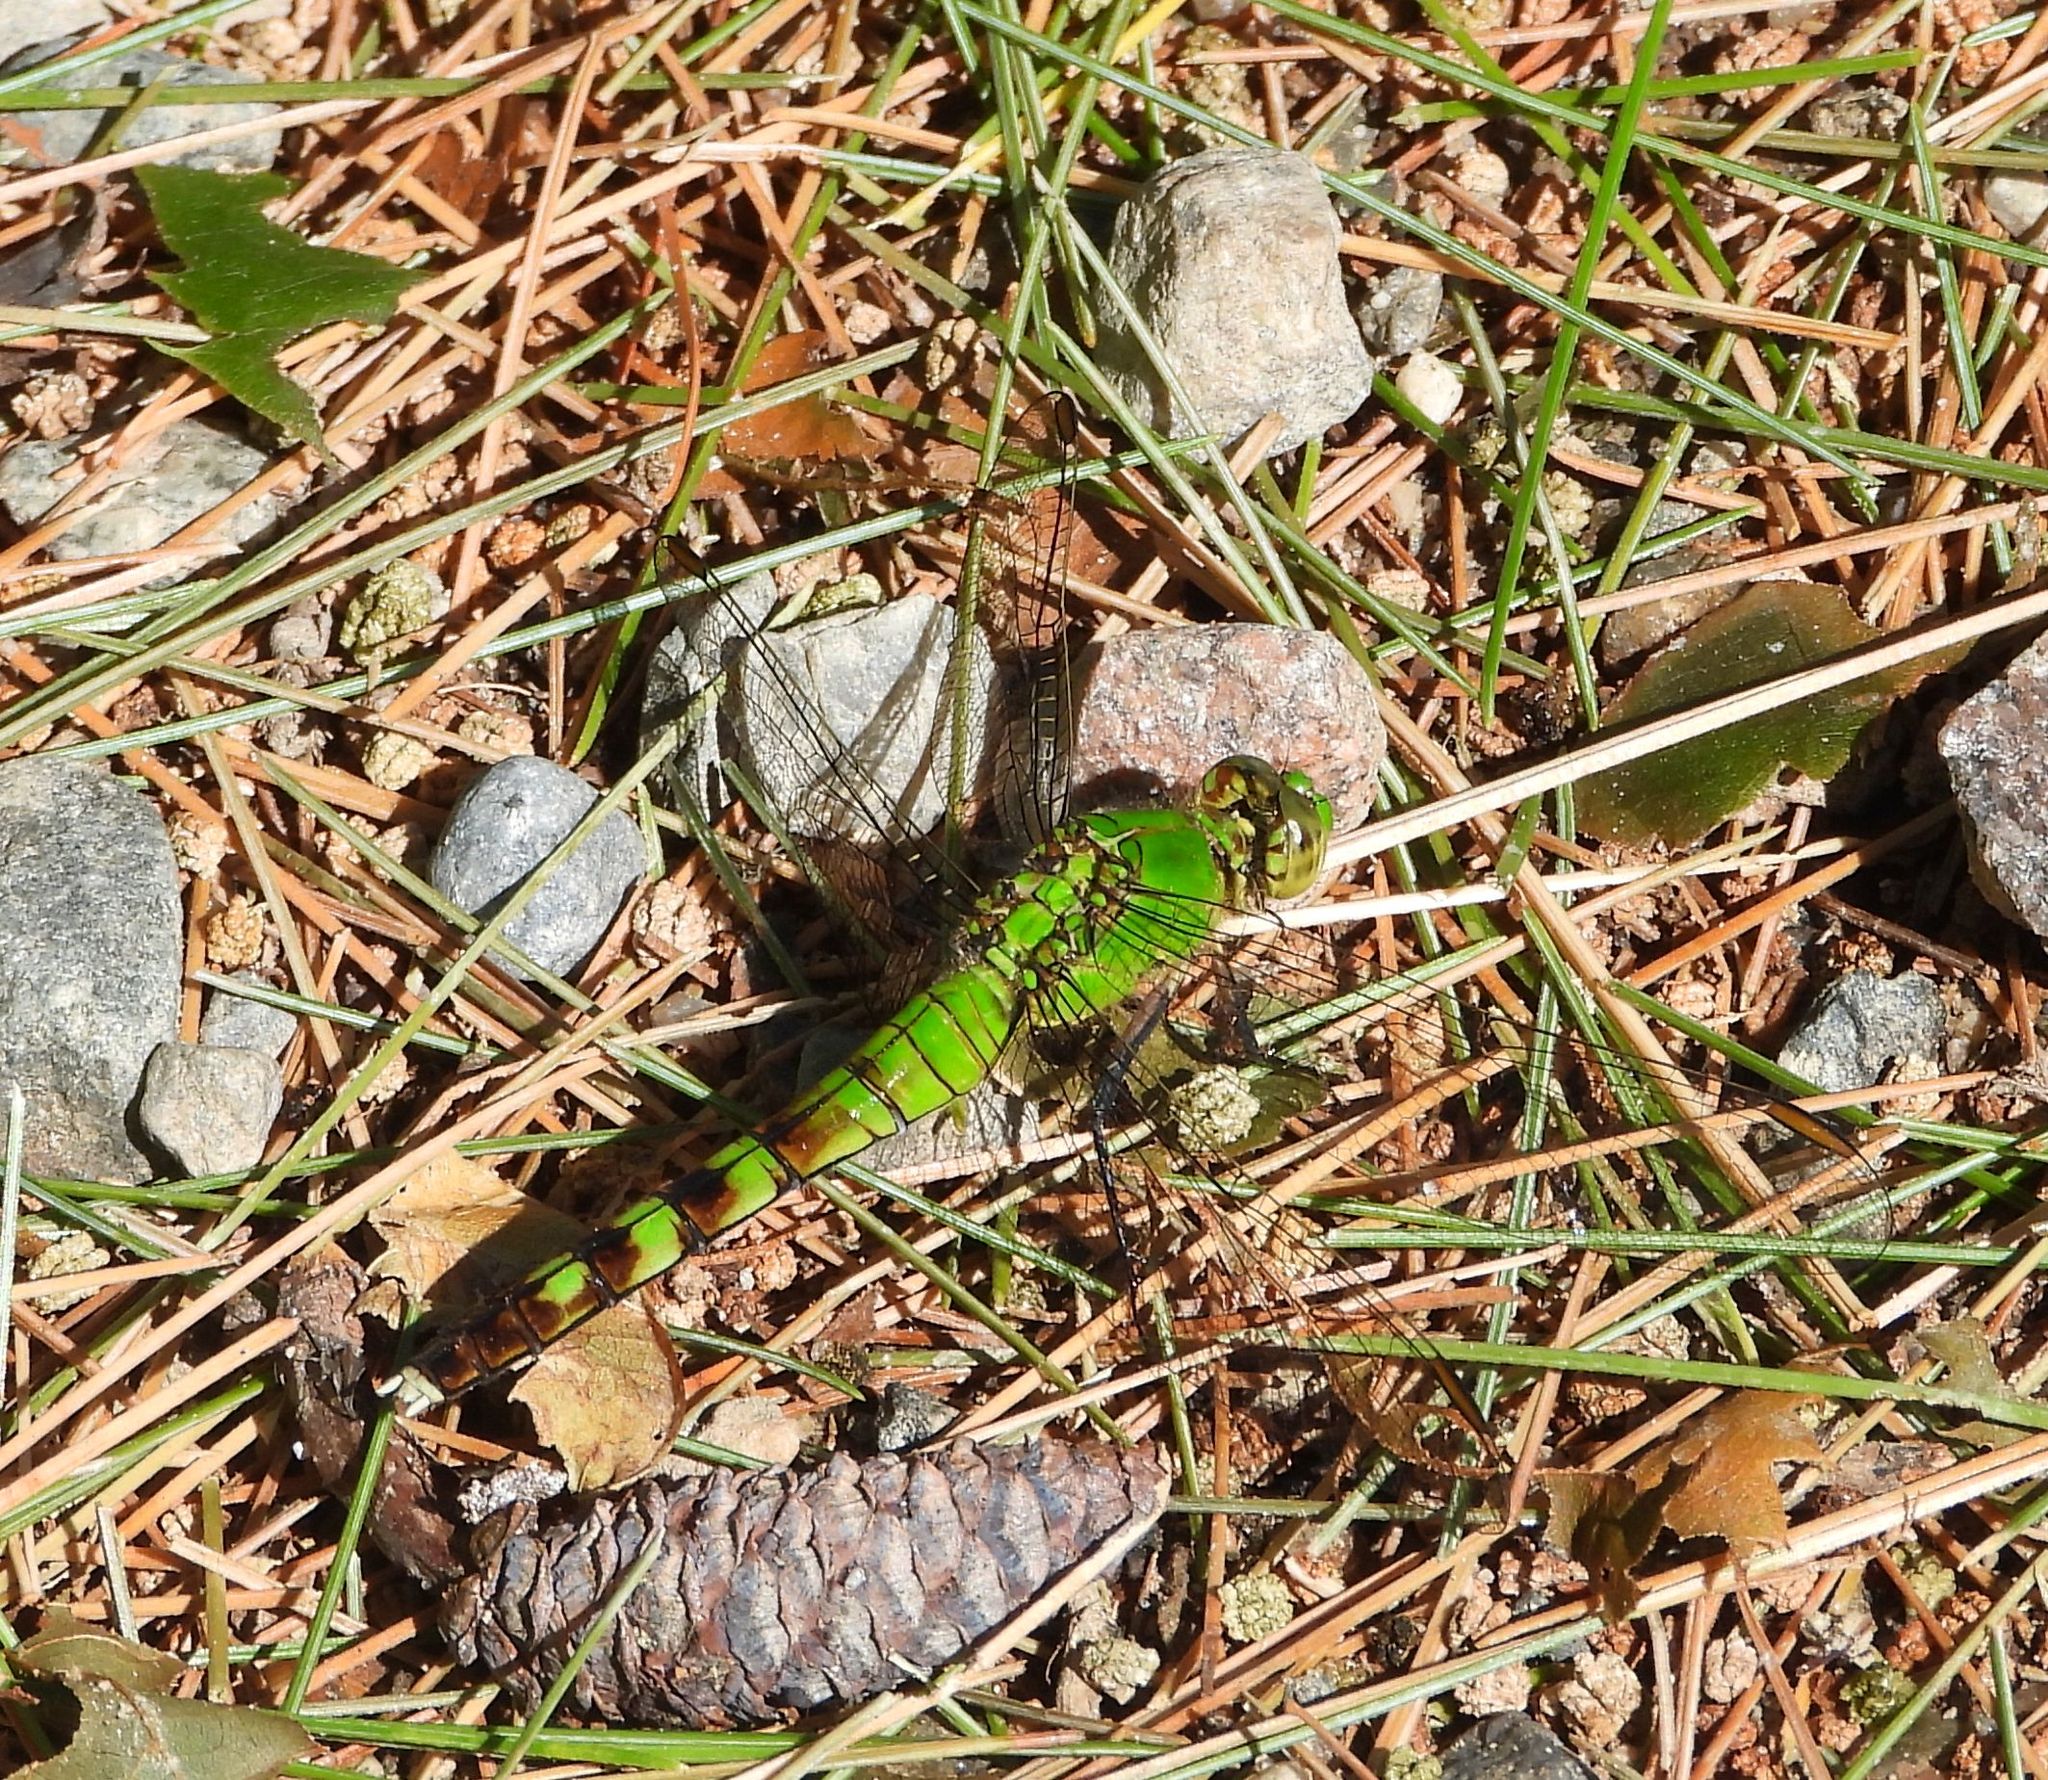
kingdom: Animalia
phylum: Arthropoda
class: Insecta
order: Odonata
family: Libellulidae
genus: Erythemis
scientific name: Erythemis simplicicollis
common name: Eastern pondhawk
